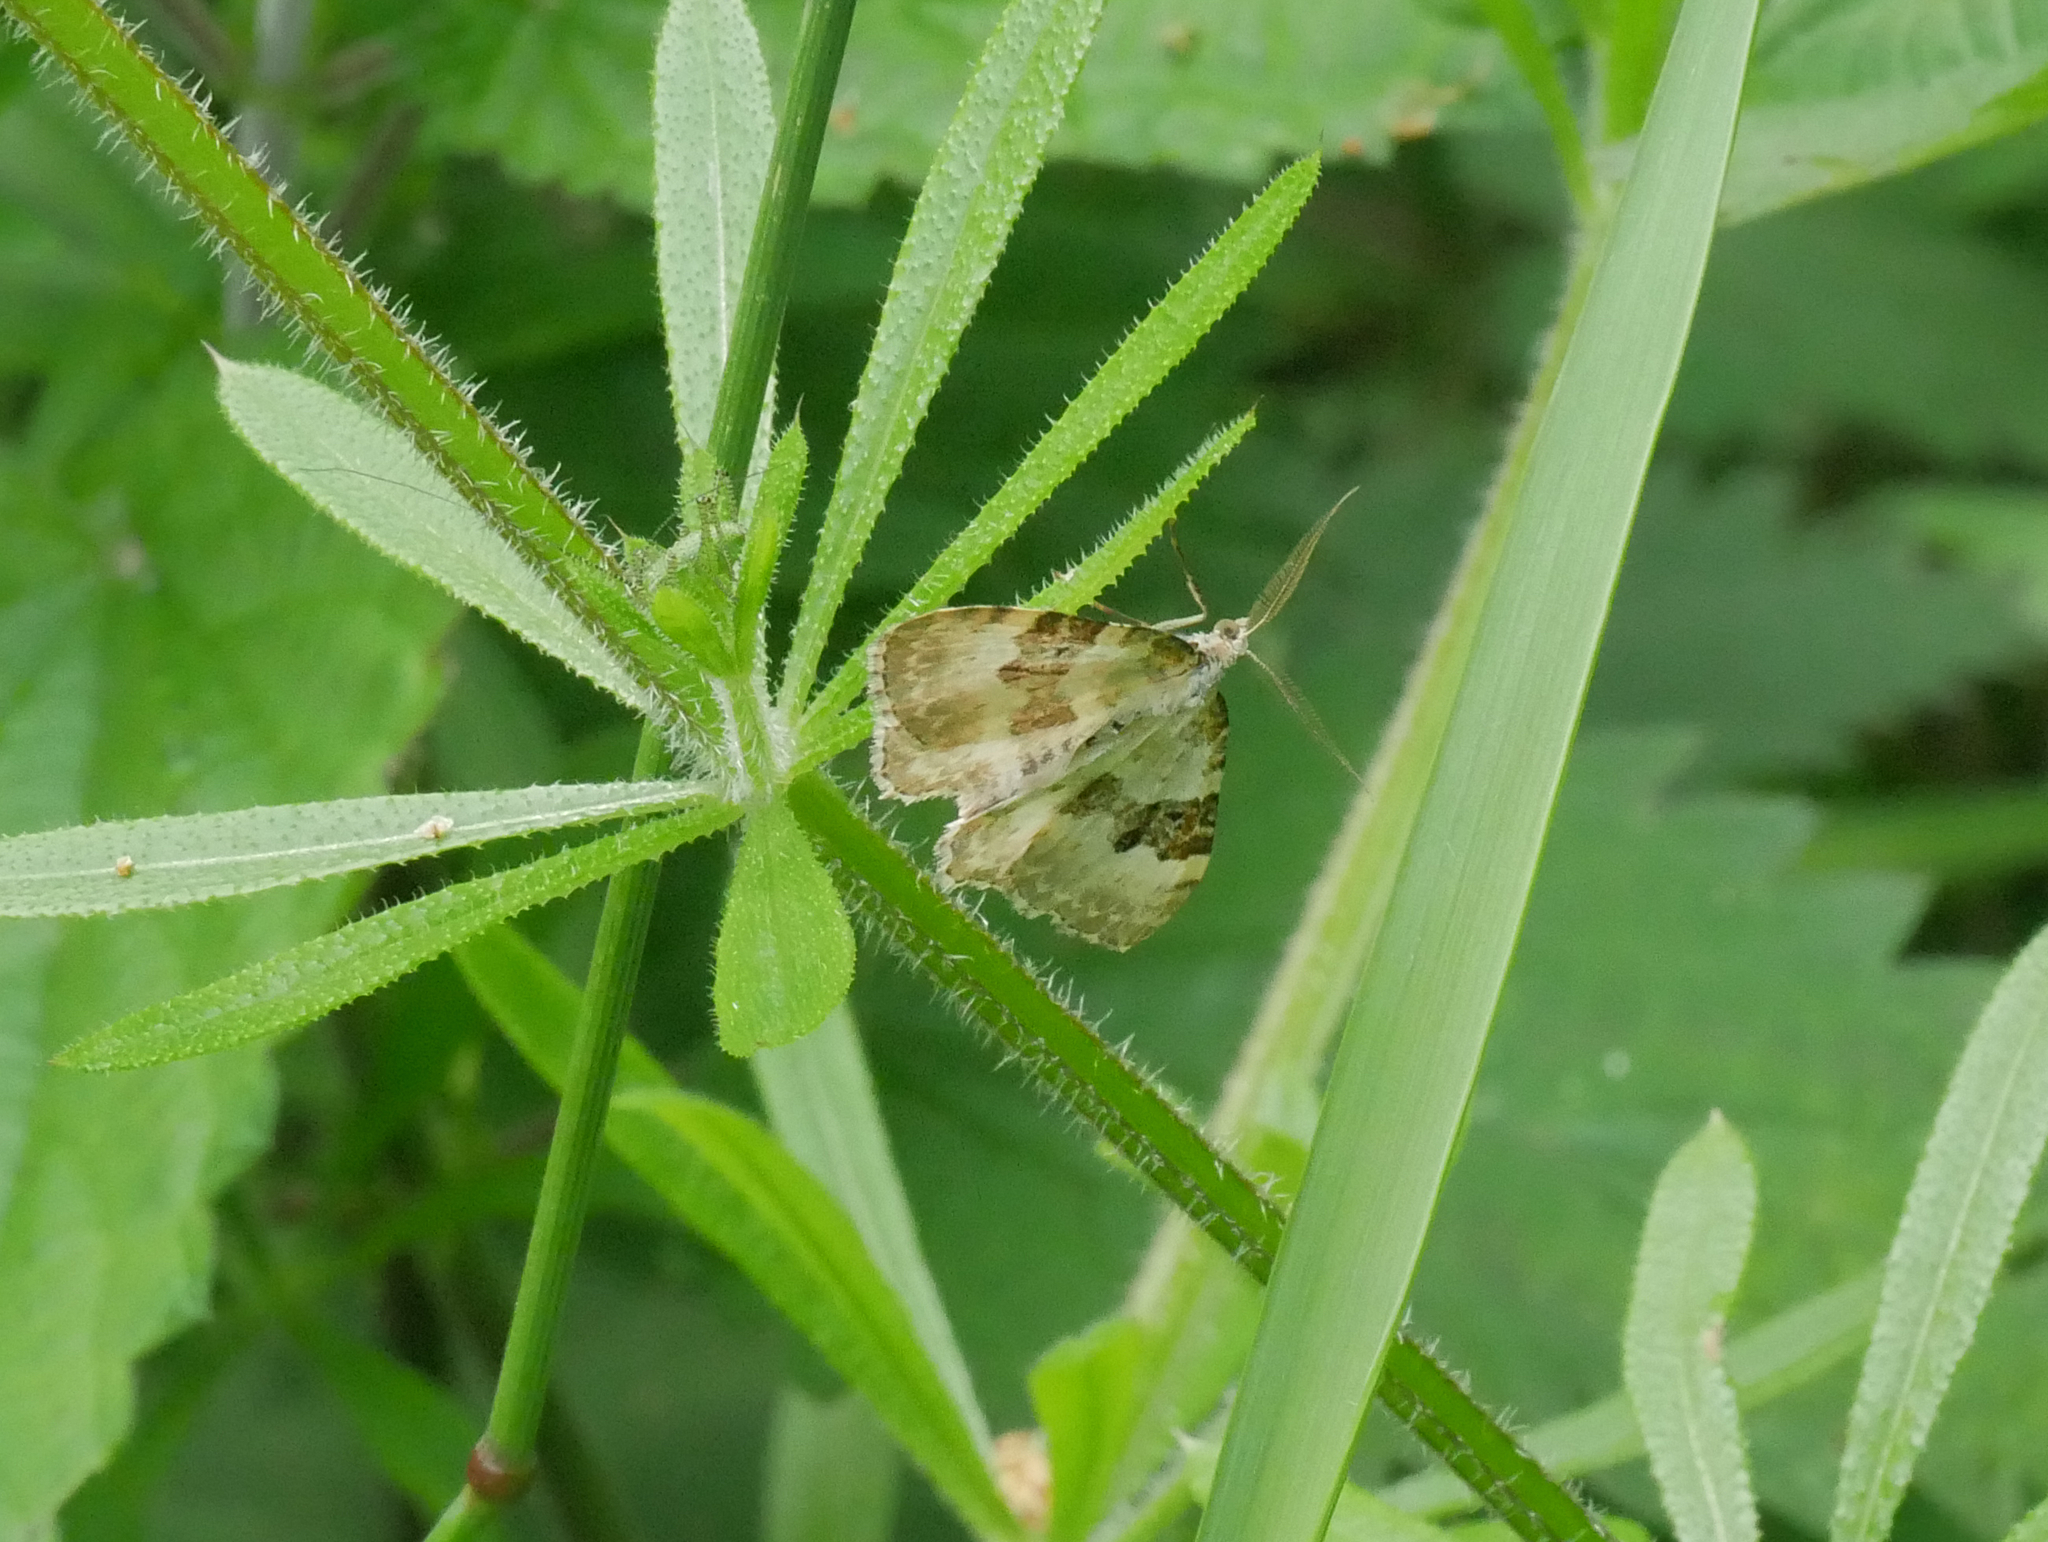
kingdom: Animalia
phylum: Arthropoda
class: Insecta
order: Lepidoptera
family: Geometridae
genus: Xanthorhoe
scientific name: Xanthorhoe montanata
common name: Silver-ground carpet
